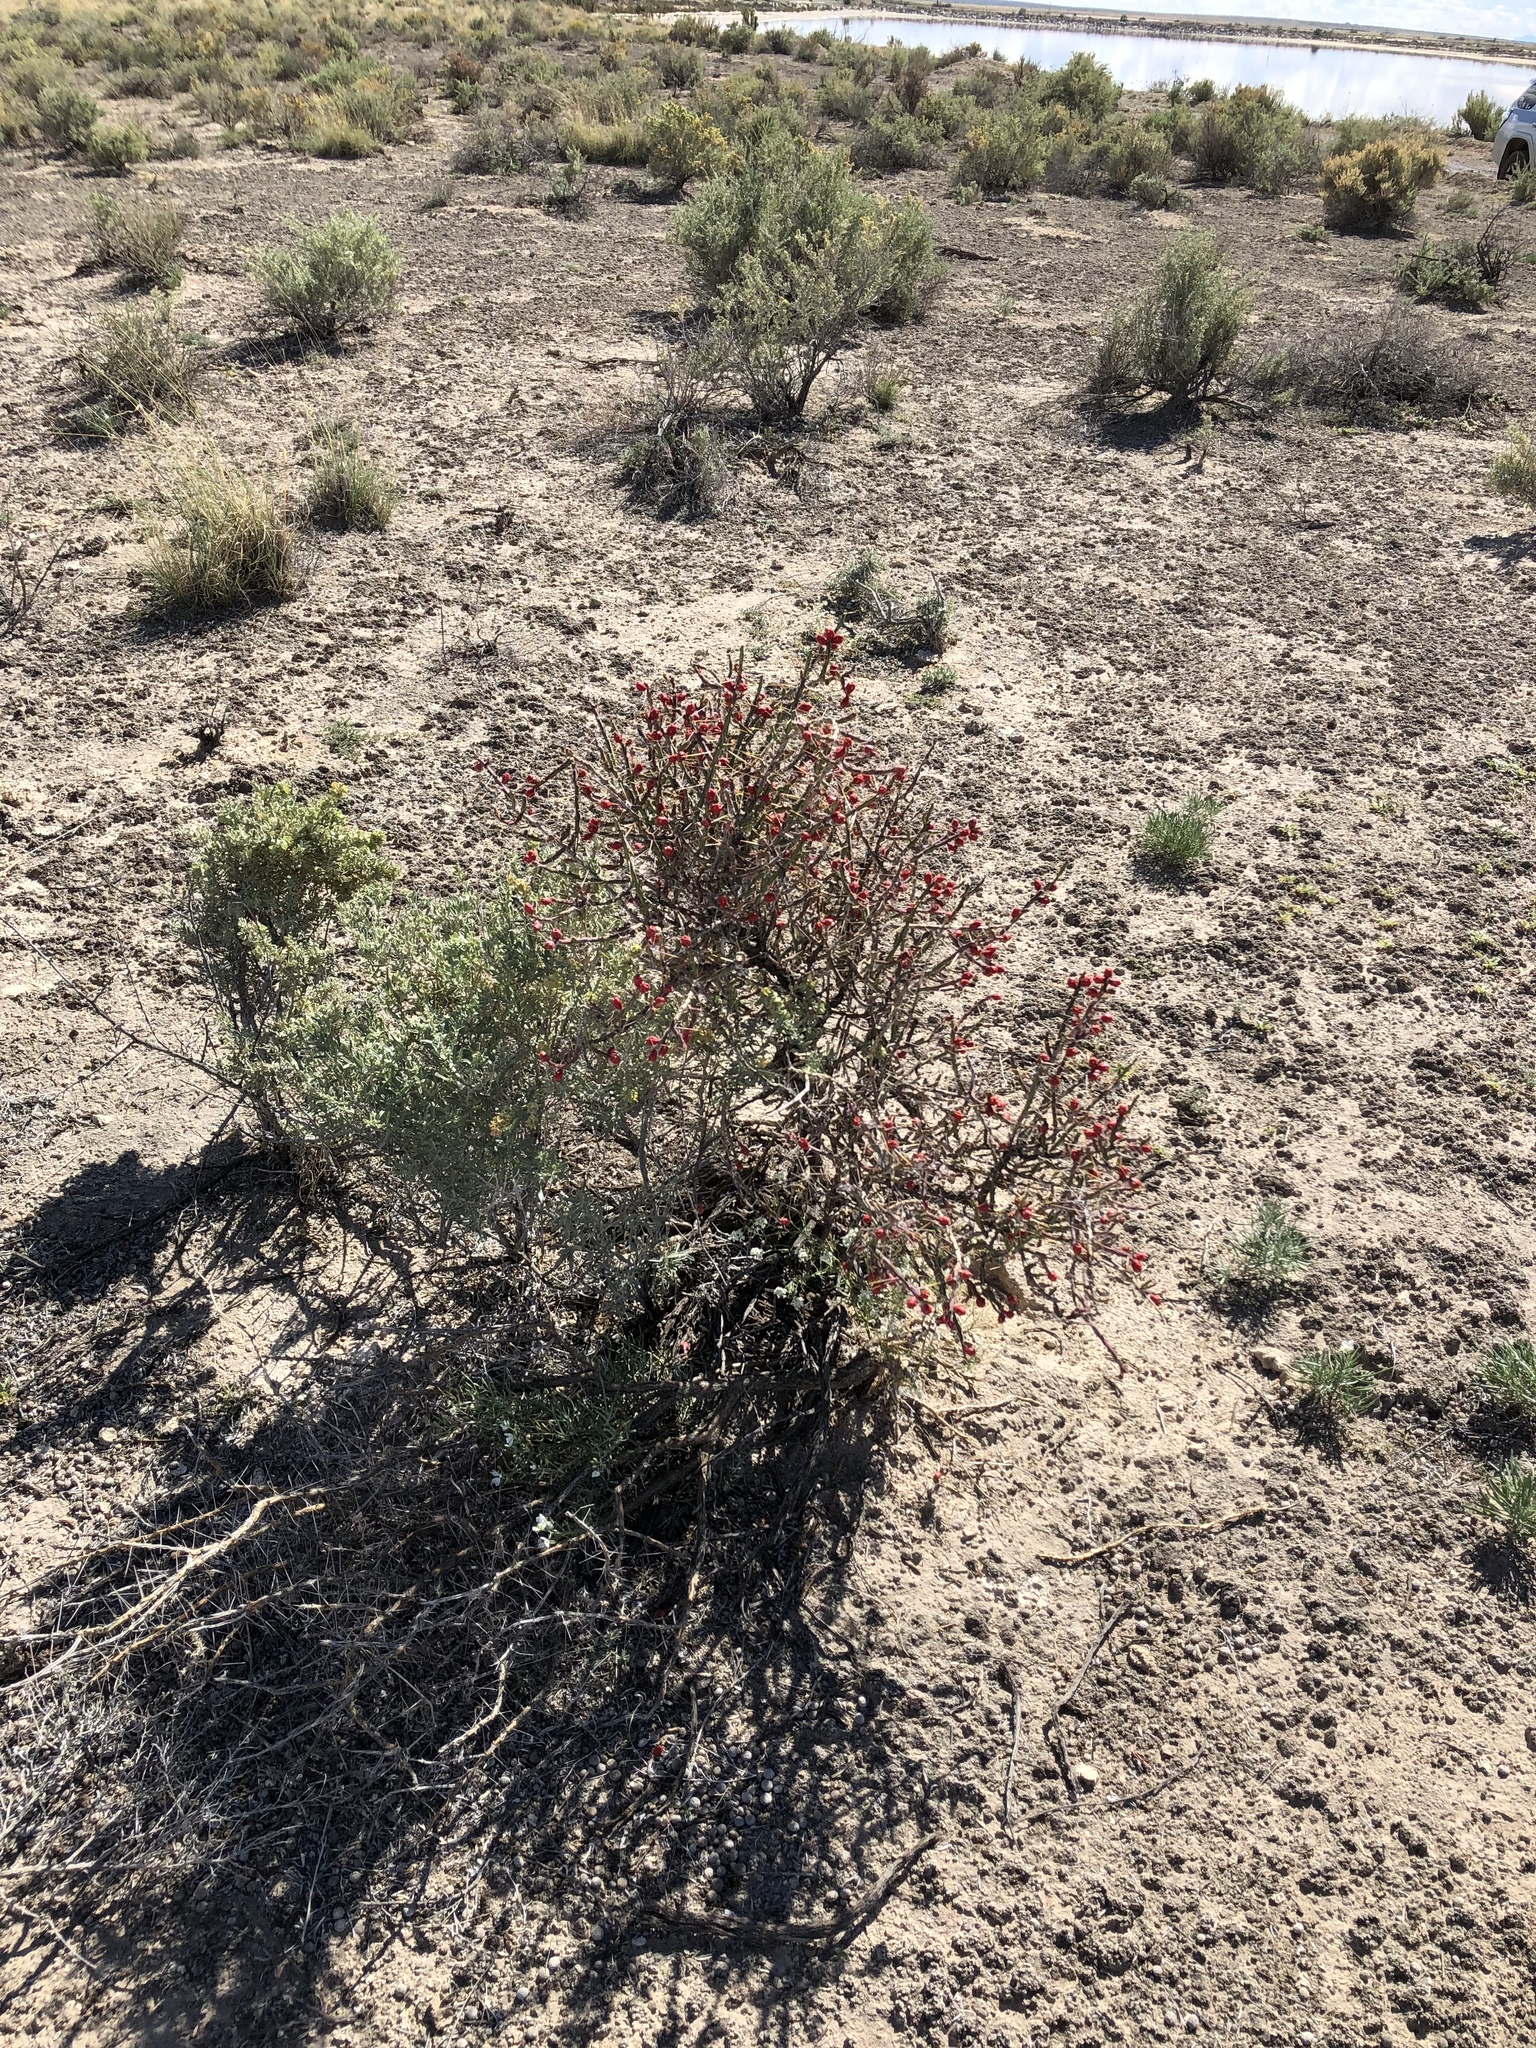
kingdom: Plantae
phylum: Tracheophyta
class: Magnoliopsida
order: Caryophyllales
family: Cactaceae
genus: Cylindropuntia
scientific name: Cylindropuntia leptocaulis
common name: Christmas cactus
